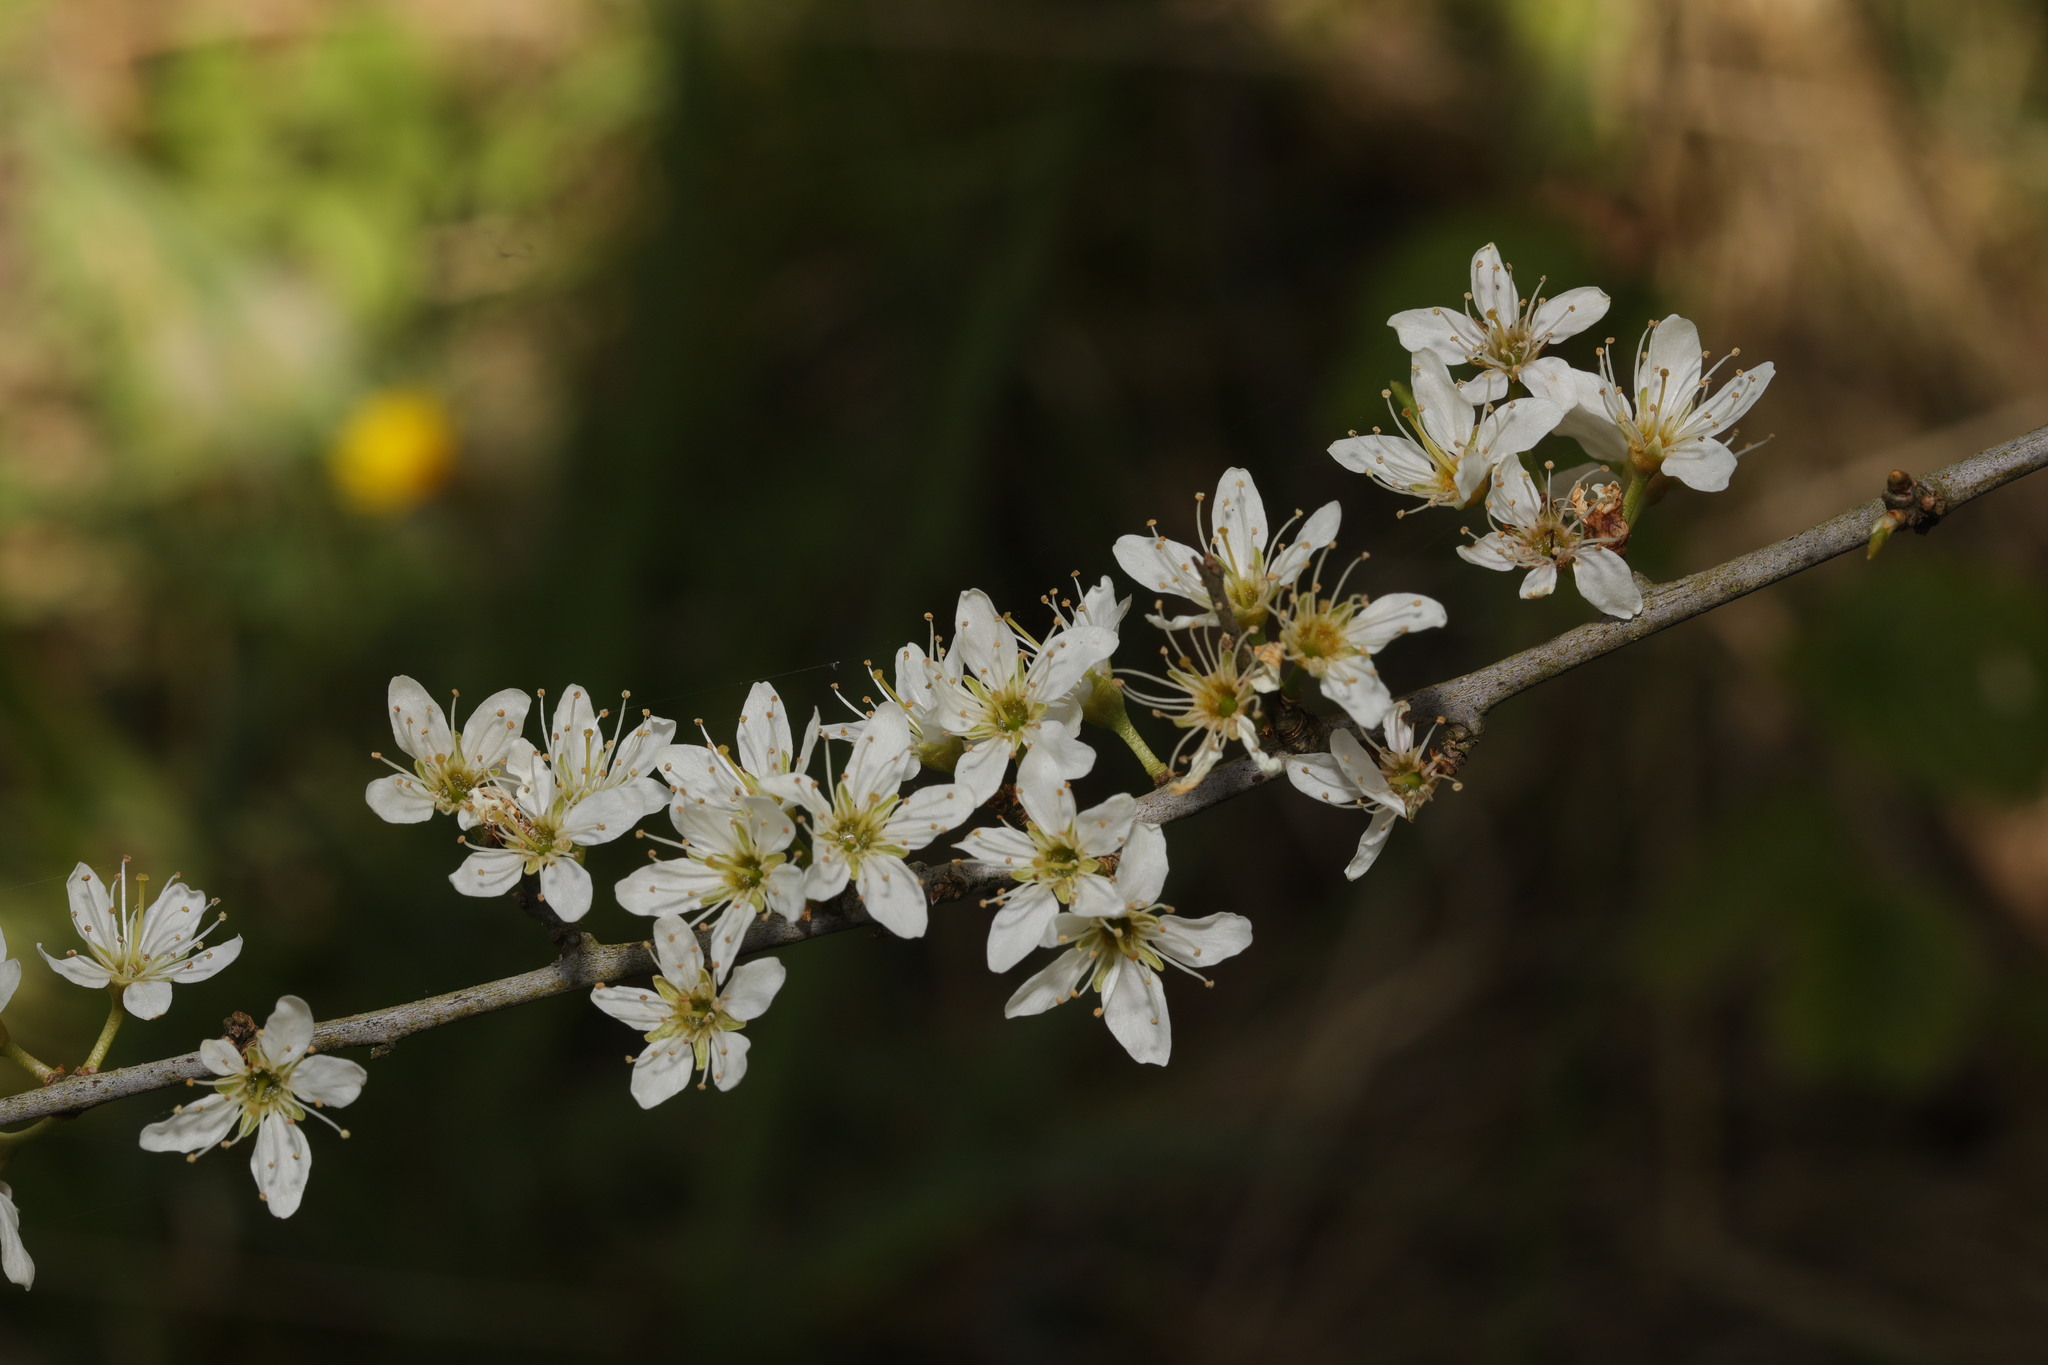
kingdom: Plantae
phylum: Tracheophyta
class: Magnoliopsida
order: Rosales
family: Rosaceae
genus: Prunus
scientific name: Prunus spinosa
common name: Blackthorn
